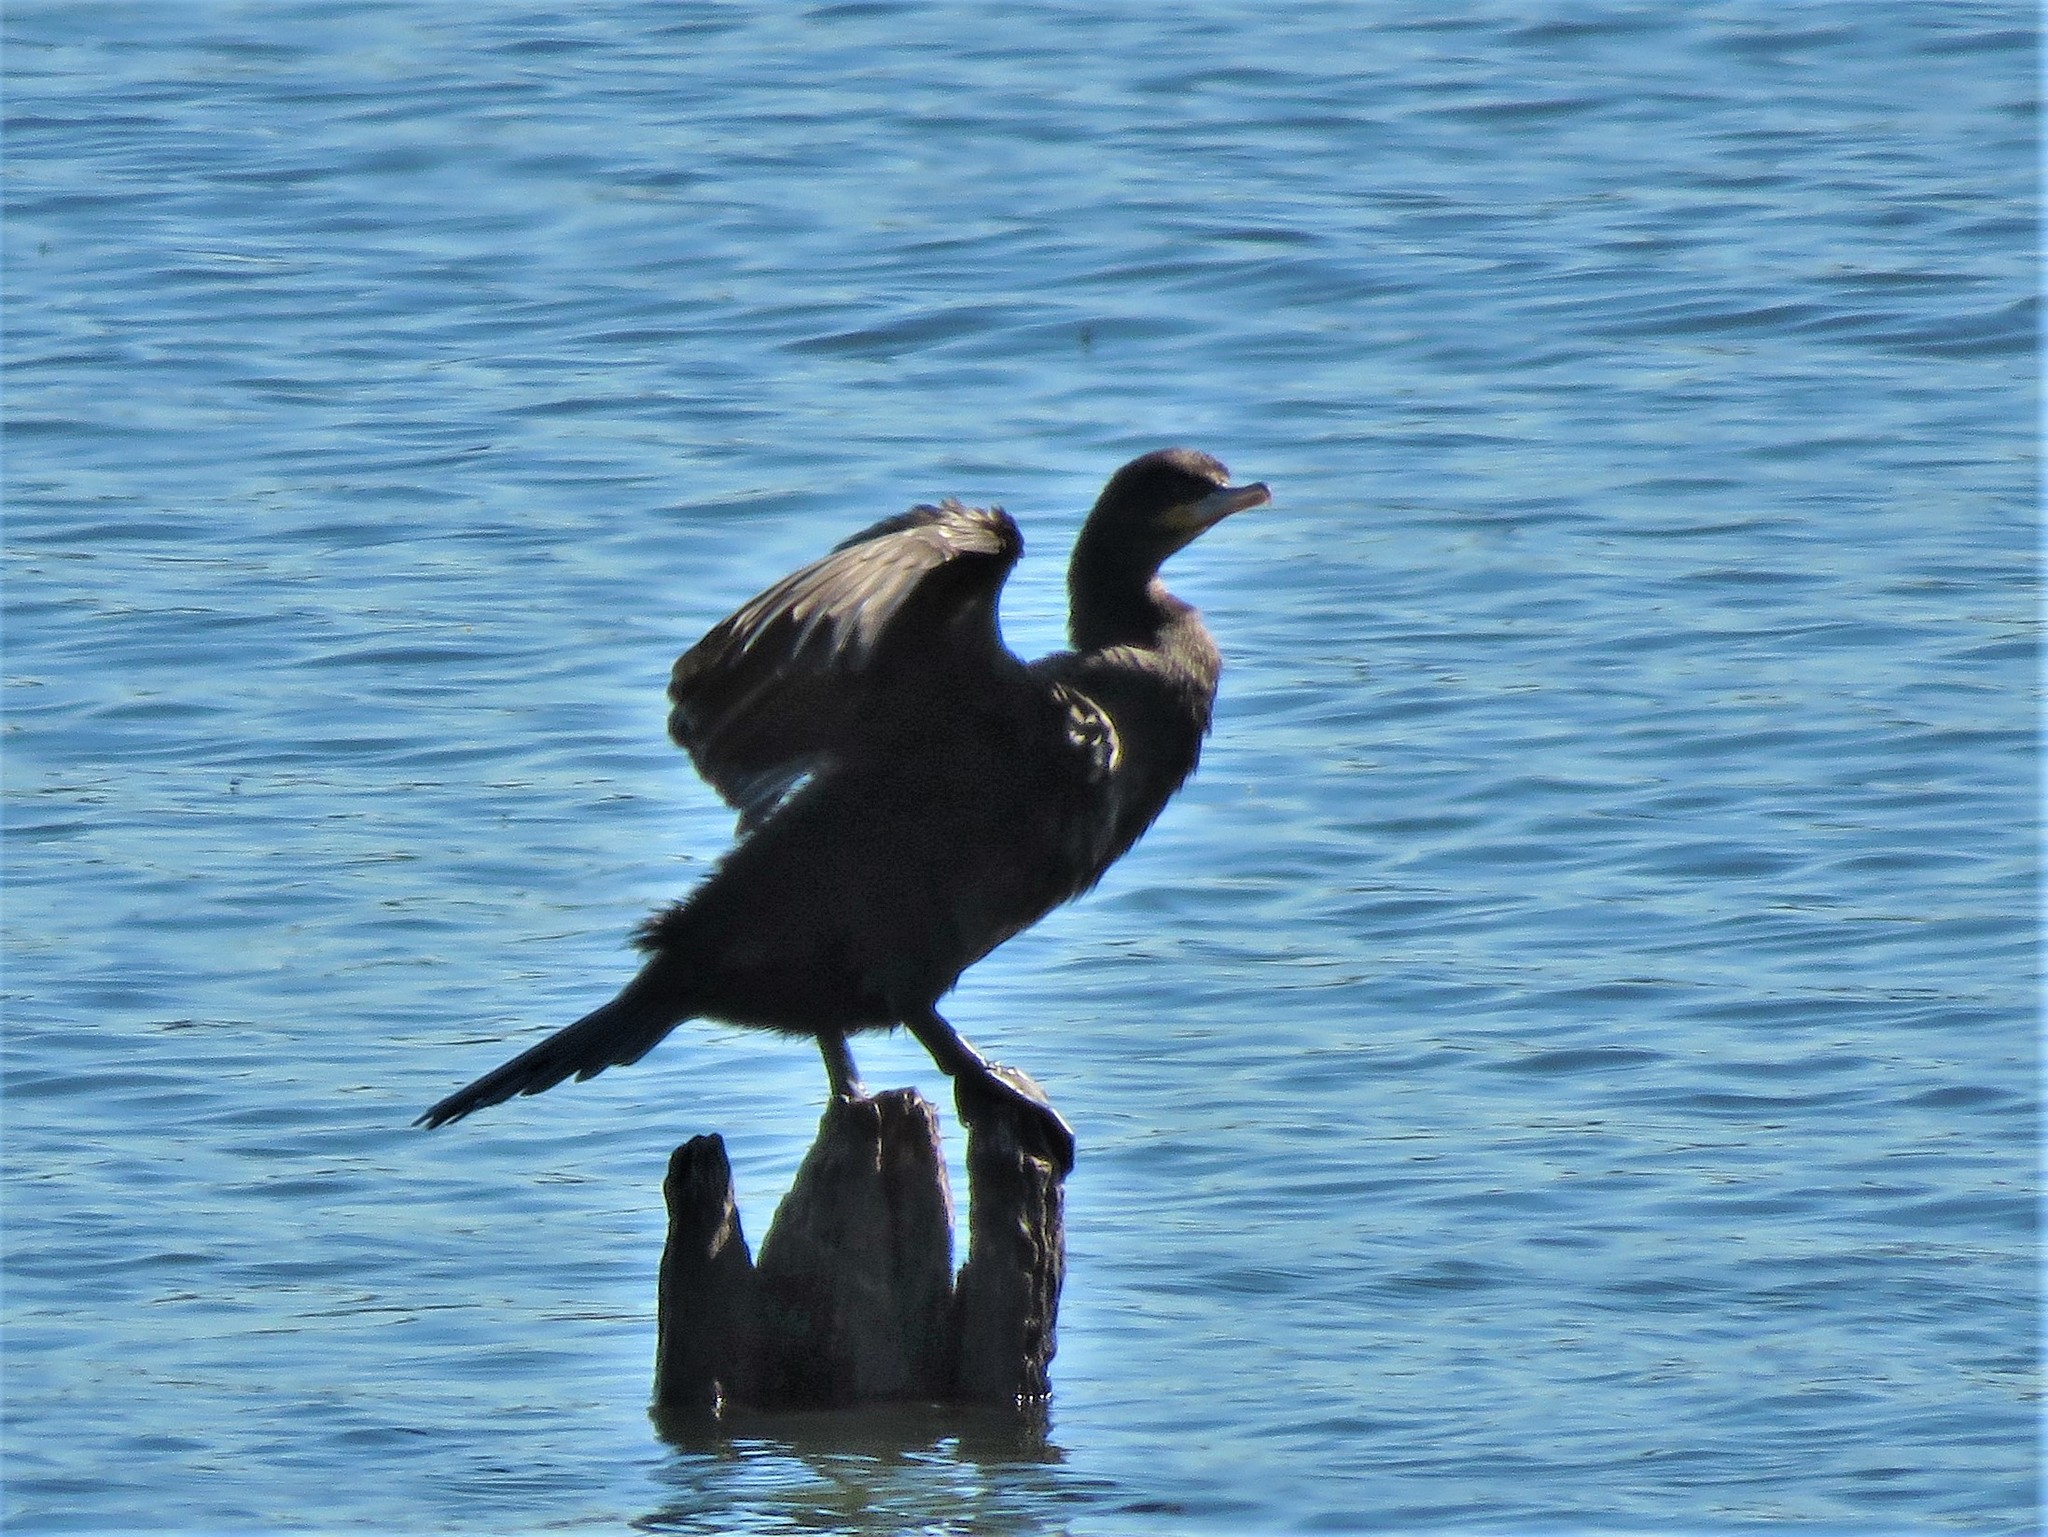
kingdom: Animalia
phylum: Chordata
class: Aves
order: Suliformes
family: Phalacrocoracidae
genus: Phalacrocorax
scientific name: Phalacrocorax brasilianus
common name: Neotropic cormorant
